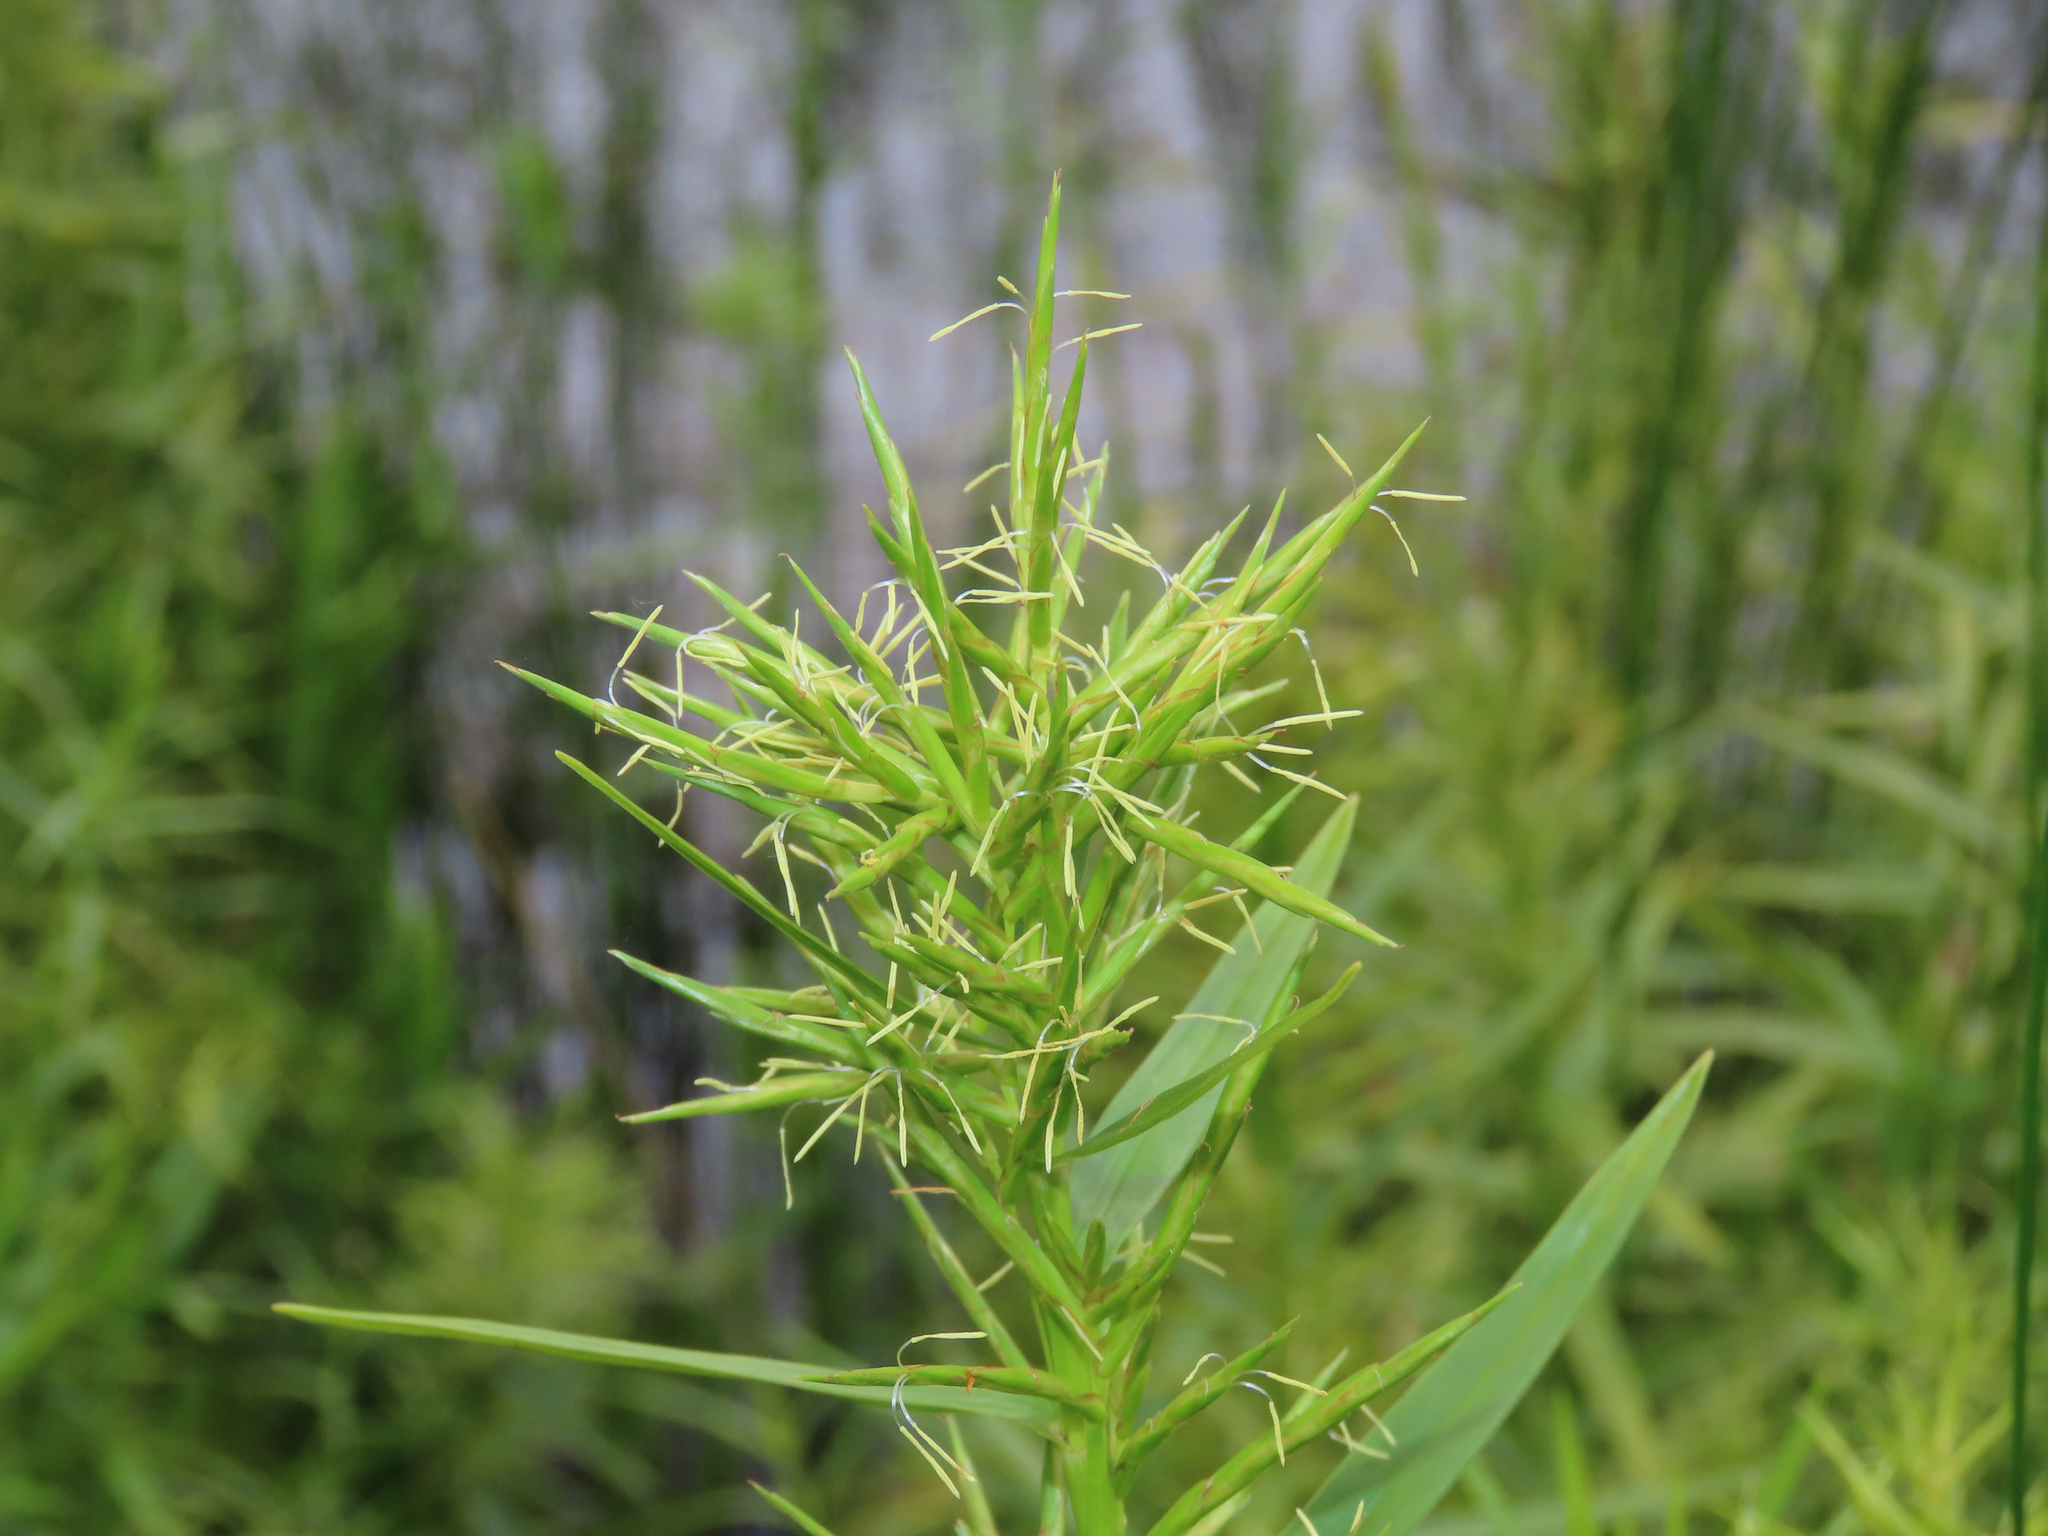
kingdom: Plantae
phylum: Tracheophyta
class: Liliopsida
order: Poales
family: Cyperaceae
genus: Dulichium
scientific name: Dulichium arundinaceum
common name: Three-way sedge
